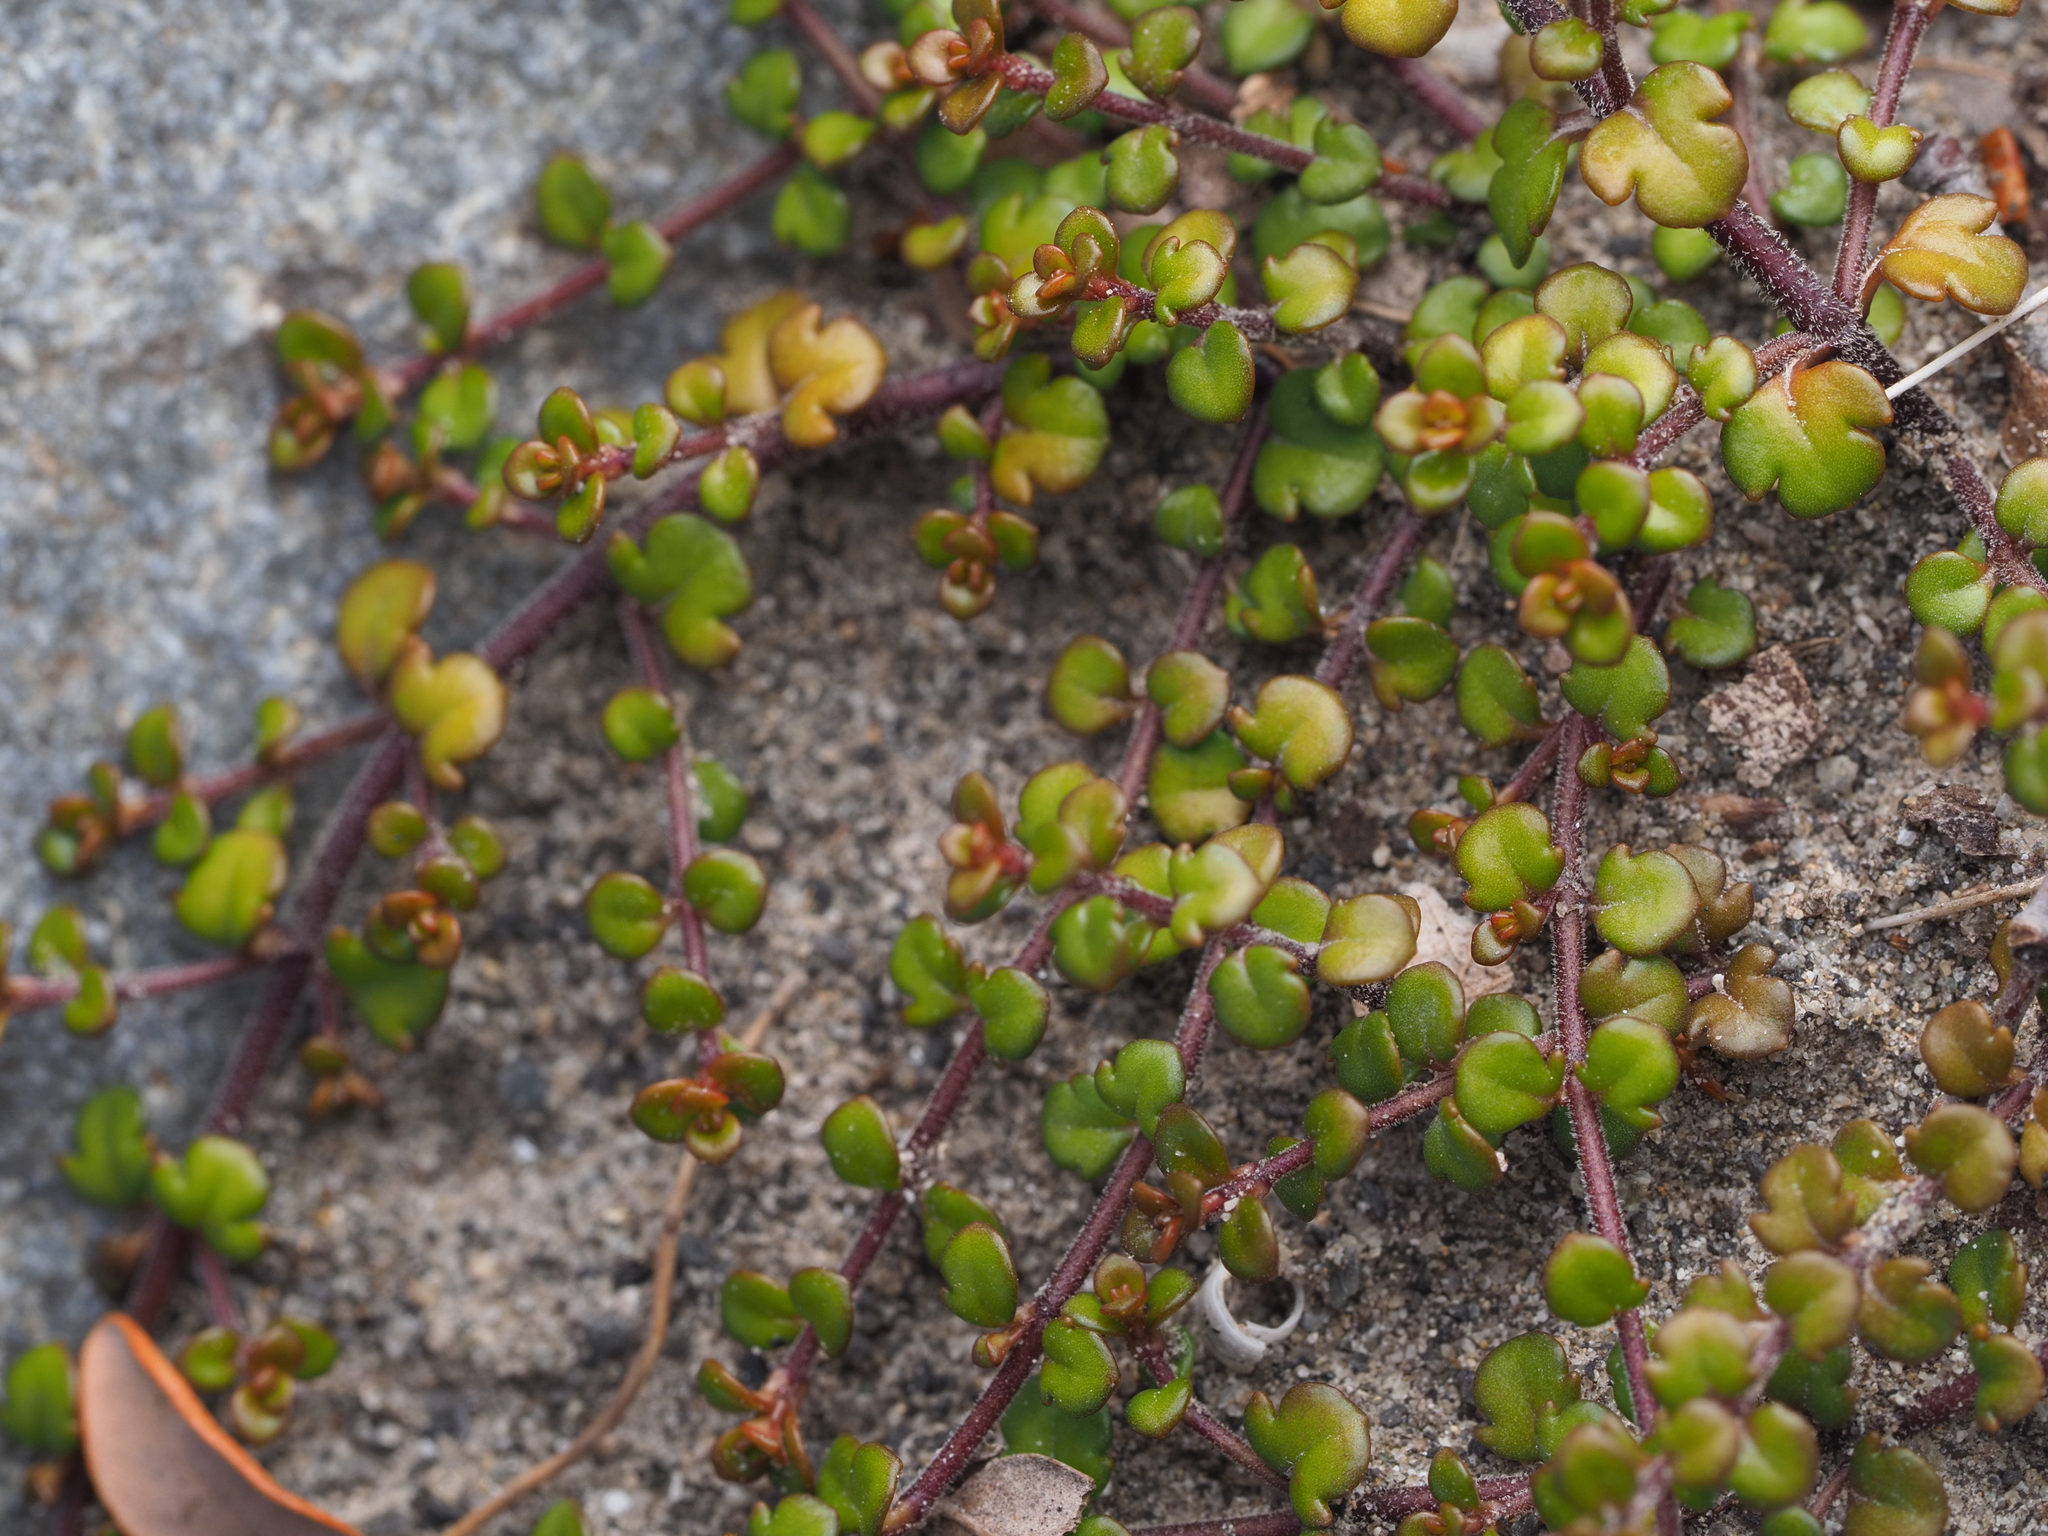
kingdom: Plantae
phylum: Tracheophyta
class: Magnoliopsida
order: Lamiales
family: Plantaginaceae
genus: Veronica
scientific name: Veronica decora
